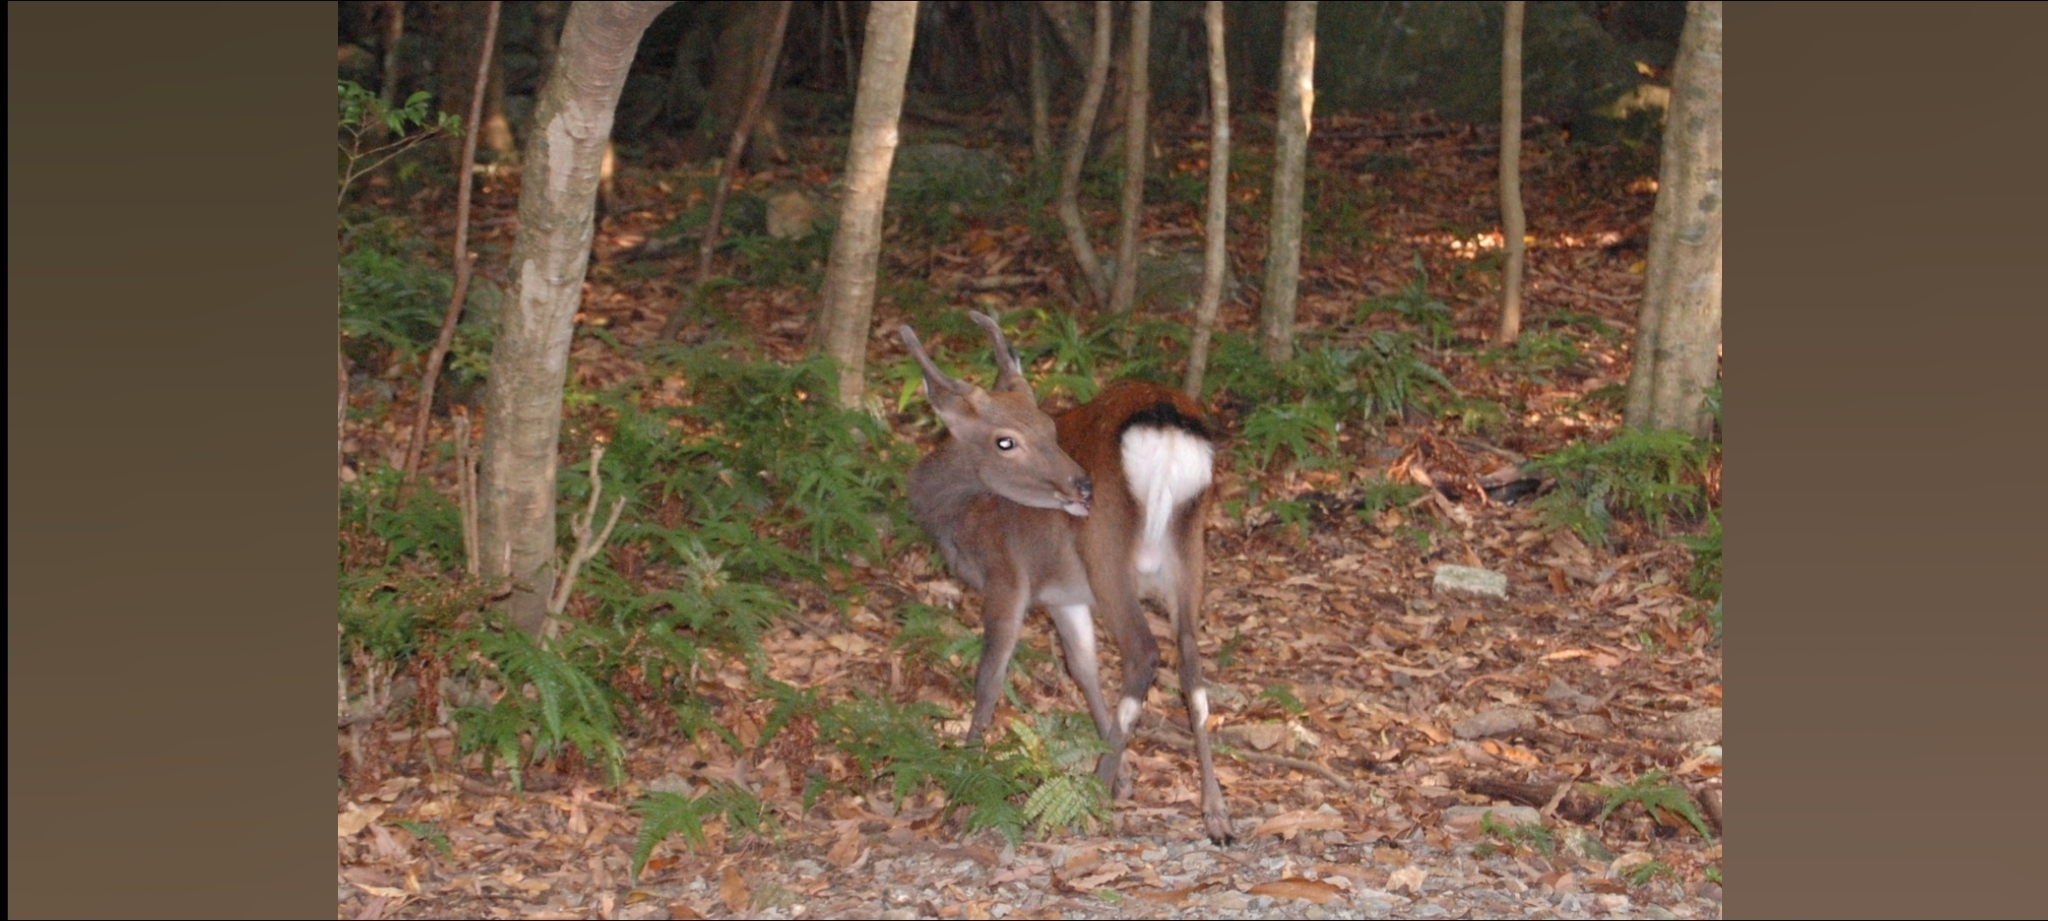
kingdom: Animalia
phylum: Chordata
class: Mammalia
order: Artiodactyla
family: Cervidae
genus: Cervus
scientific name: Cervus nippon
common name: Sika deer
